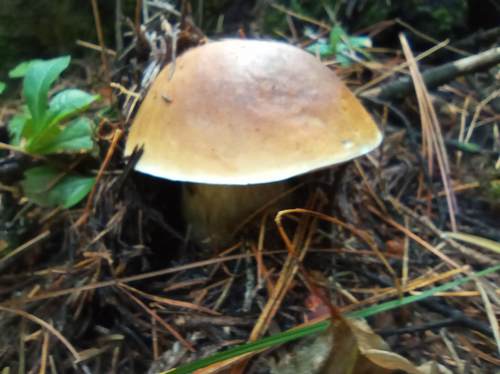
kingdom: Fungi
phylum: Basidiomycota
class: Agaricomycetes
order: Boletales
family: Boletaceae
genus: Boletus
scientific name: Boletus edulis
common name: Cep
